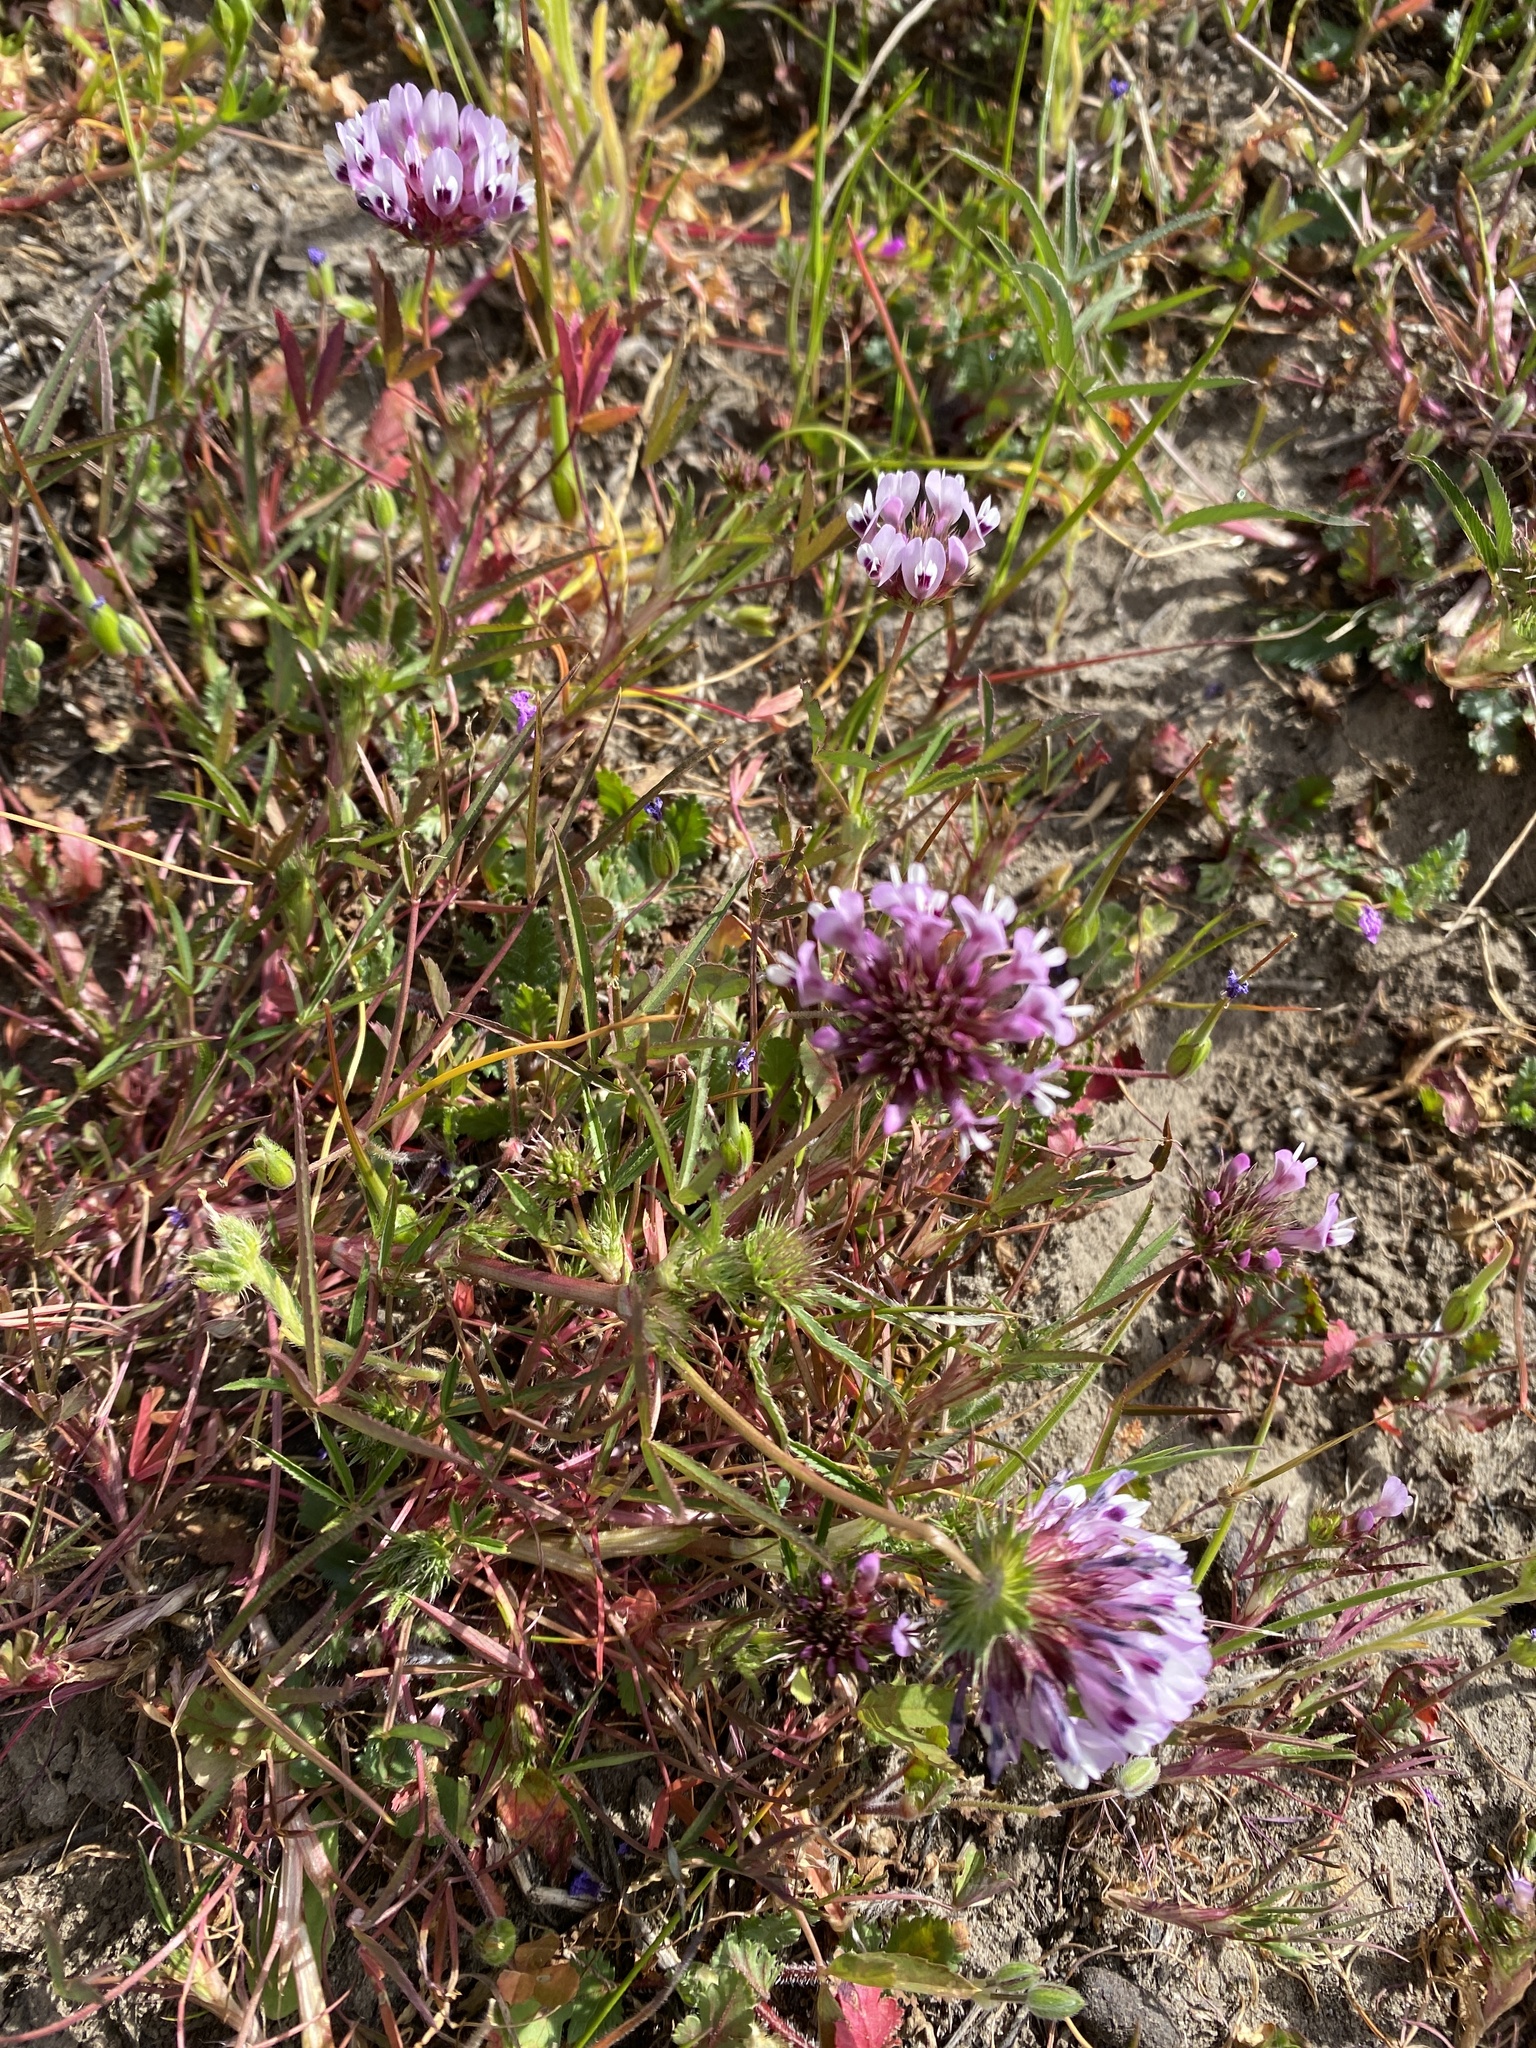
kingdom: Plantae
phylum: Tracheophyta
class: Magnoliopsida
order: Fabales
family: Fabaceae
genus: Trifolium
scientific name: Trifolium willdenovii
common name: Tomcat clover
